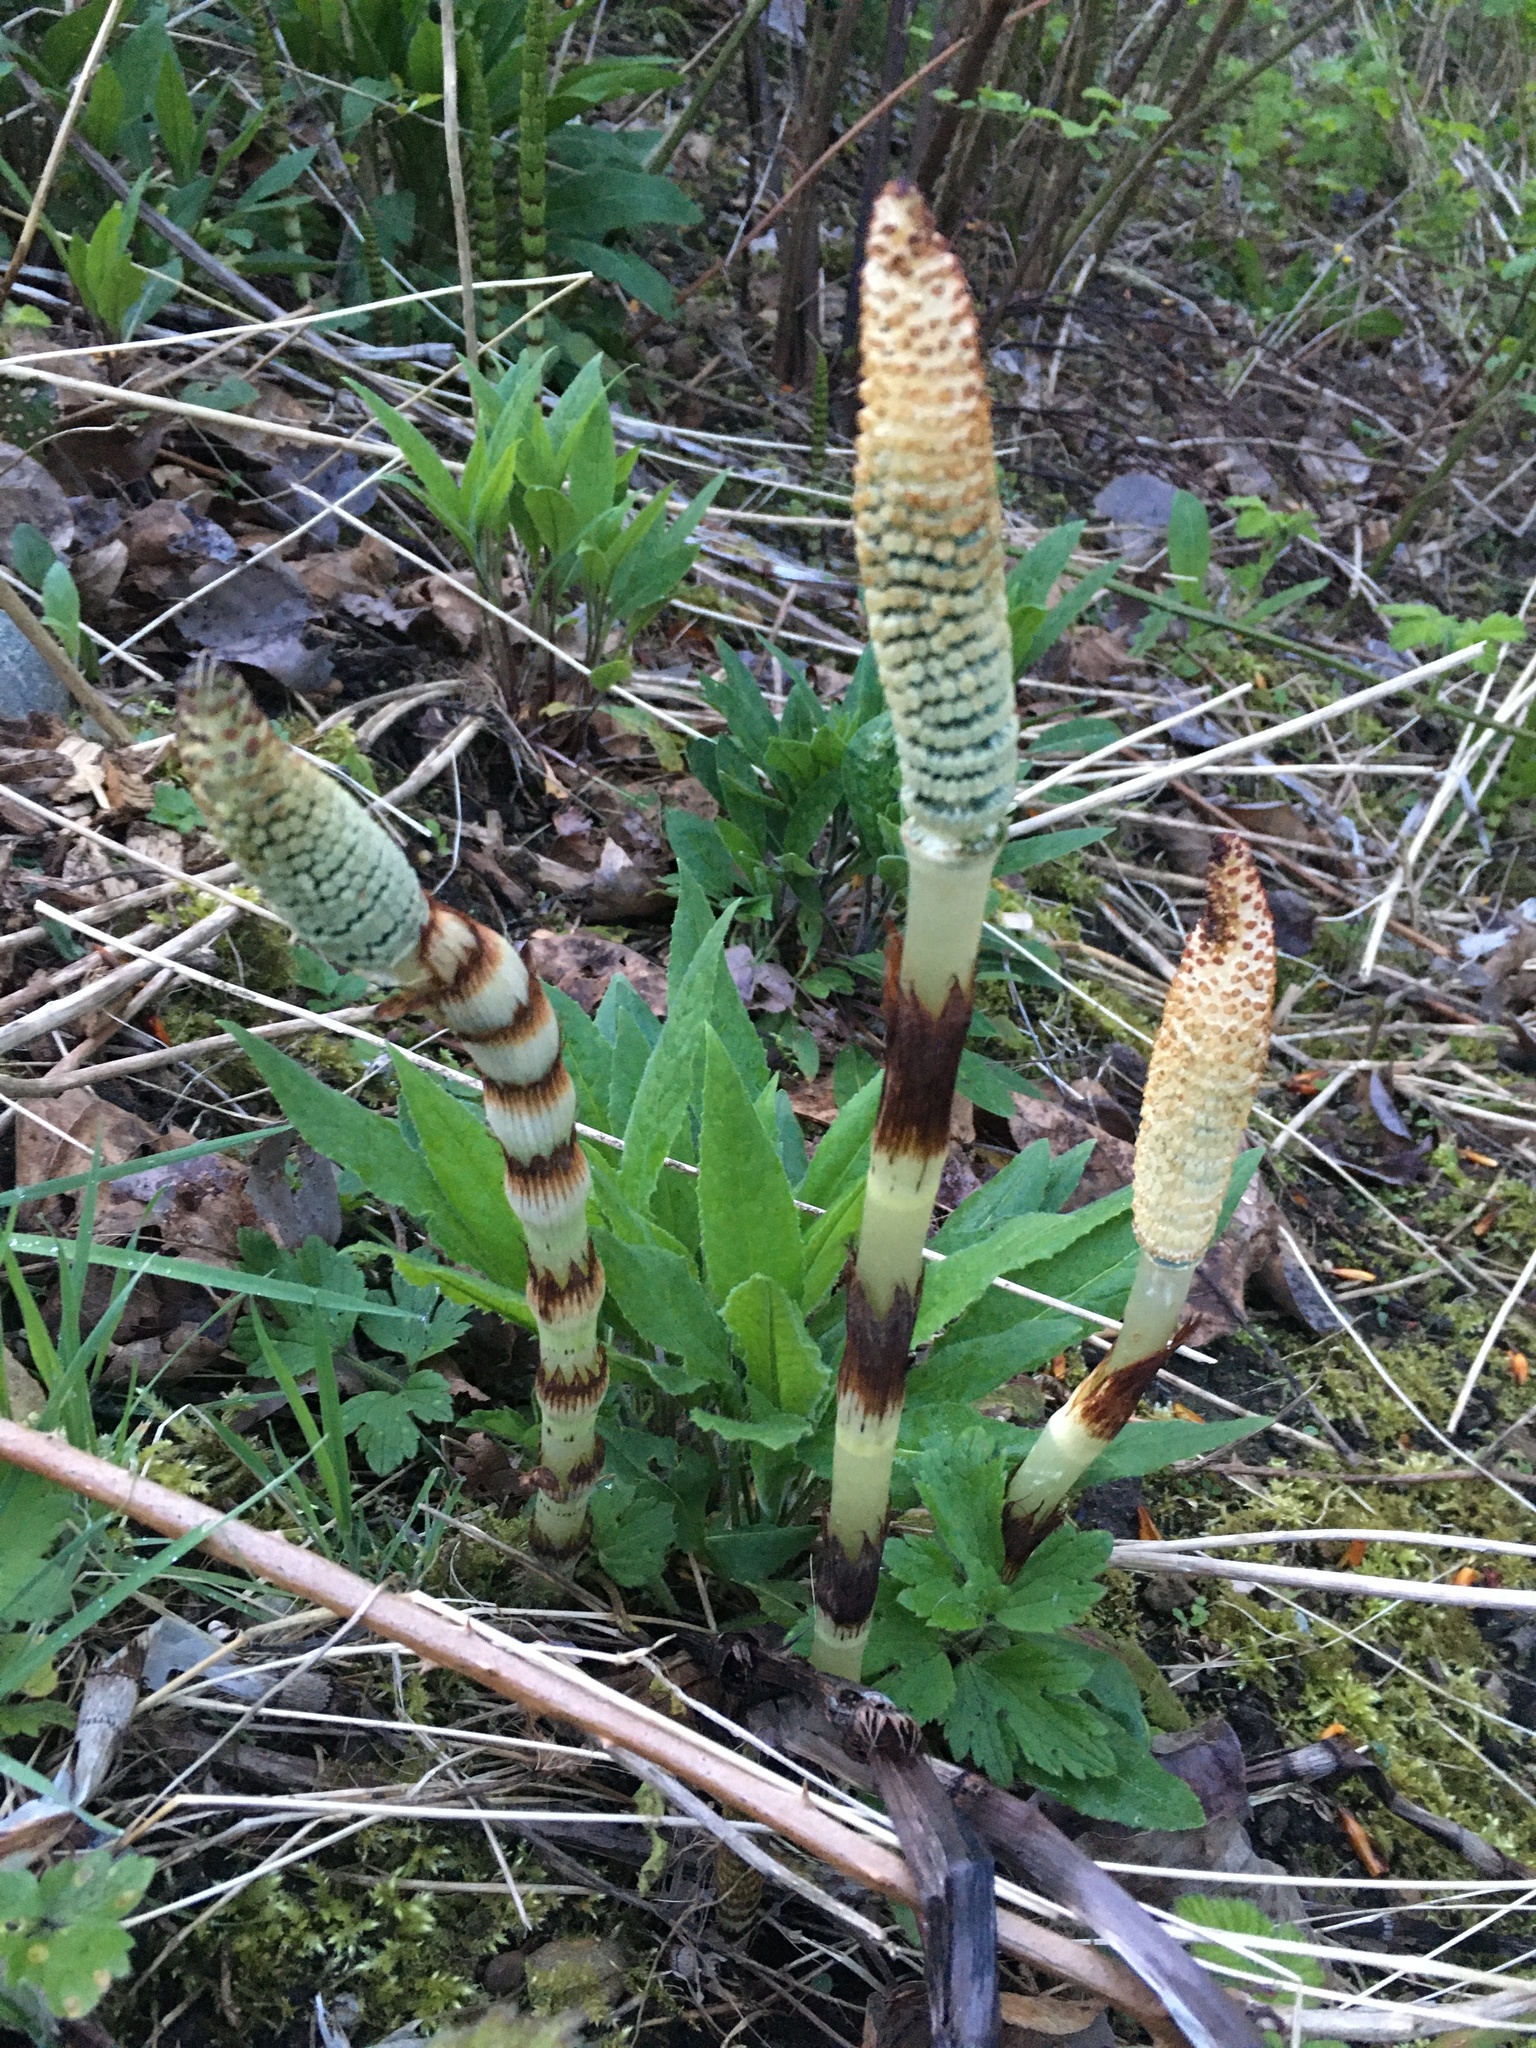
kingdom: Plantae
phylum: Tracheophyta
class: Polypodiopsida
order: Equisetales
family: Equisetaceae
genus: Equisetum
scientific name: Equisetum telmateia
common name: Great horsetail
